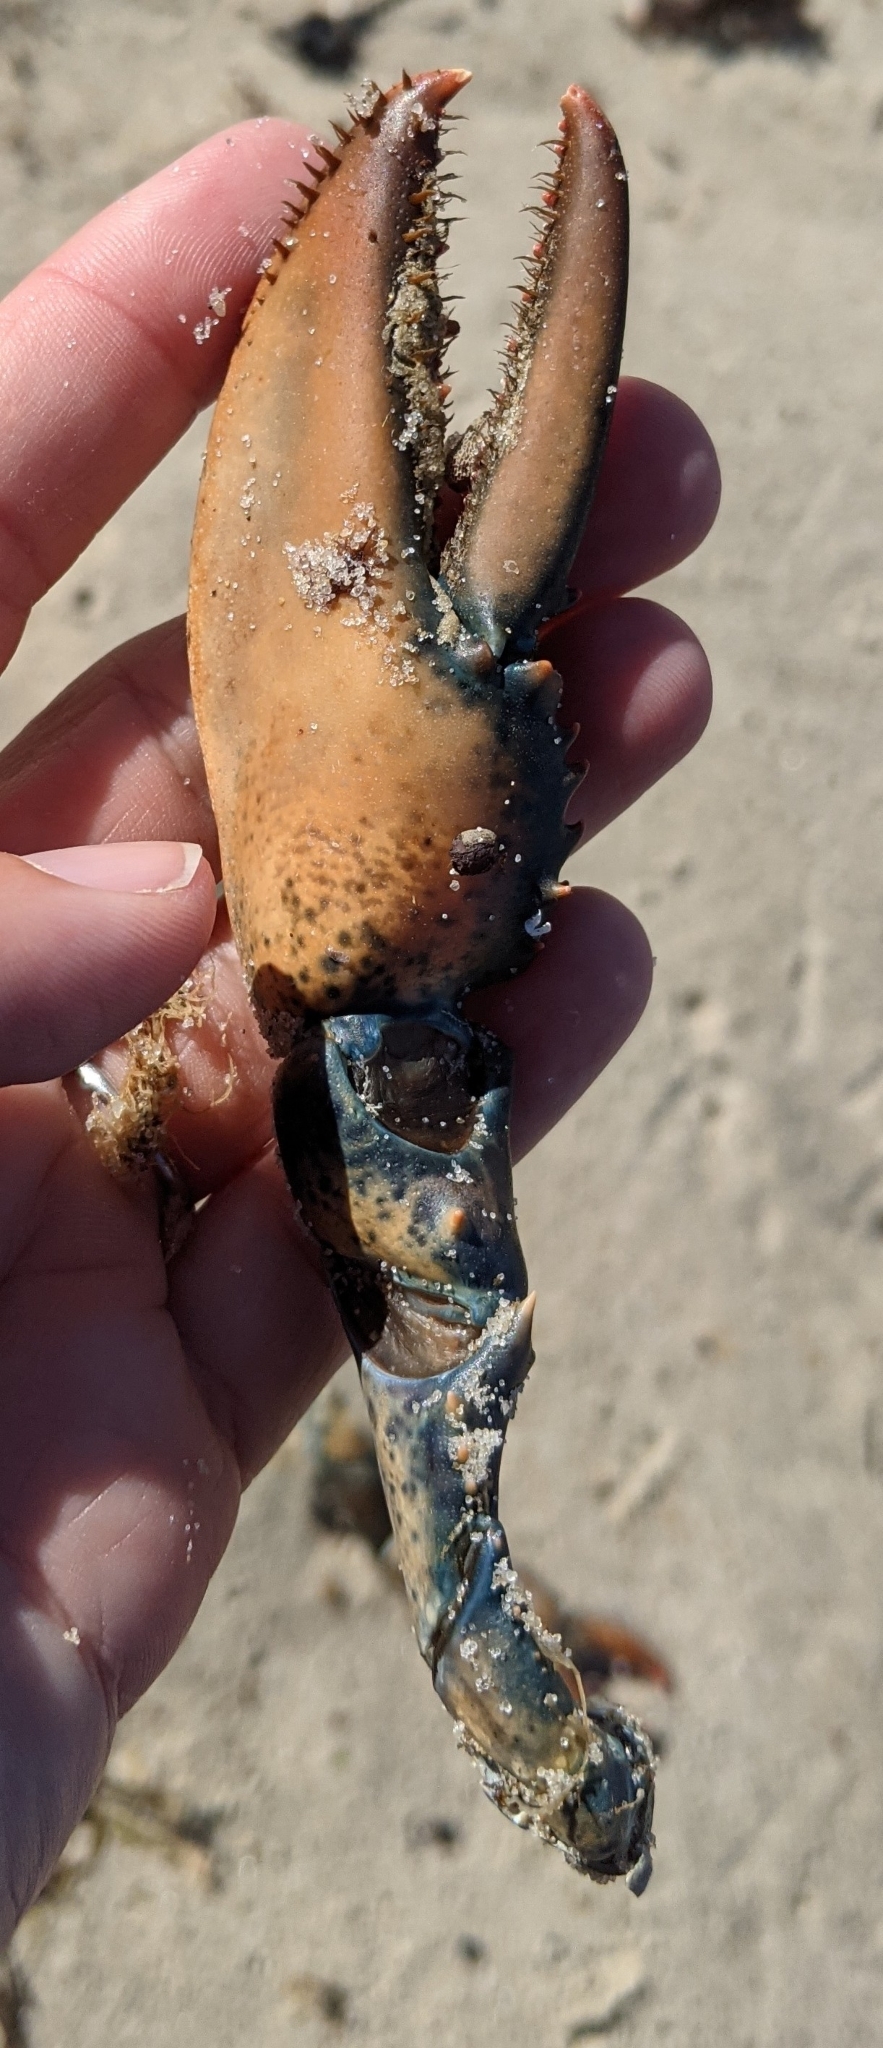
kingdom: Animalia
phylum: Arthropoda
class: Malacostraca
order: Decapoda
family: Nephropidae
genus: Homarus
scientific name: Homarus americanus
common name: American lobster
